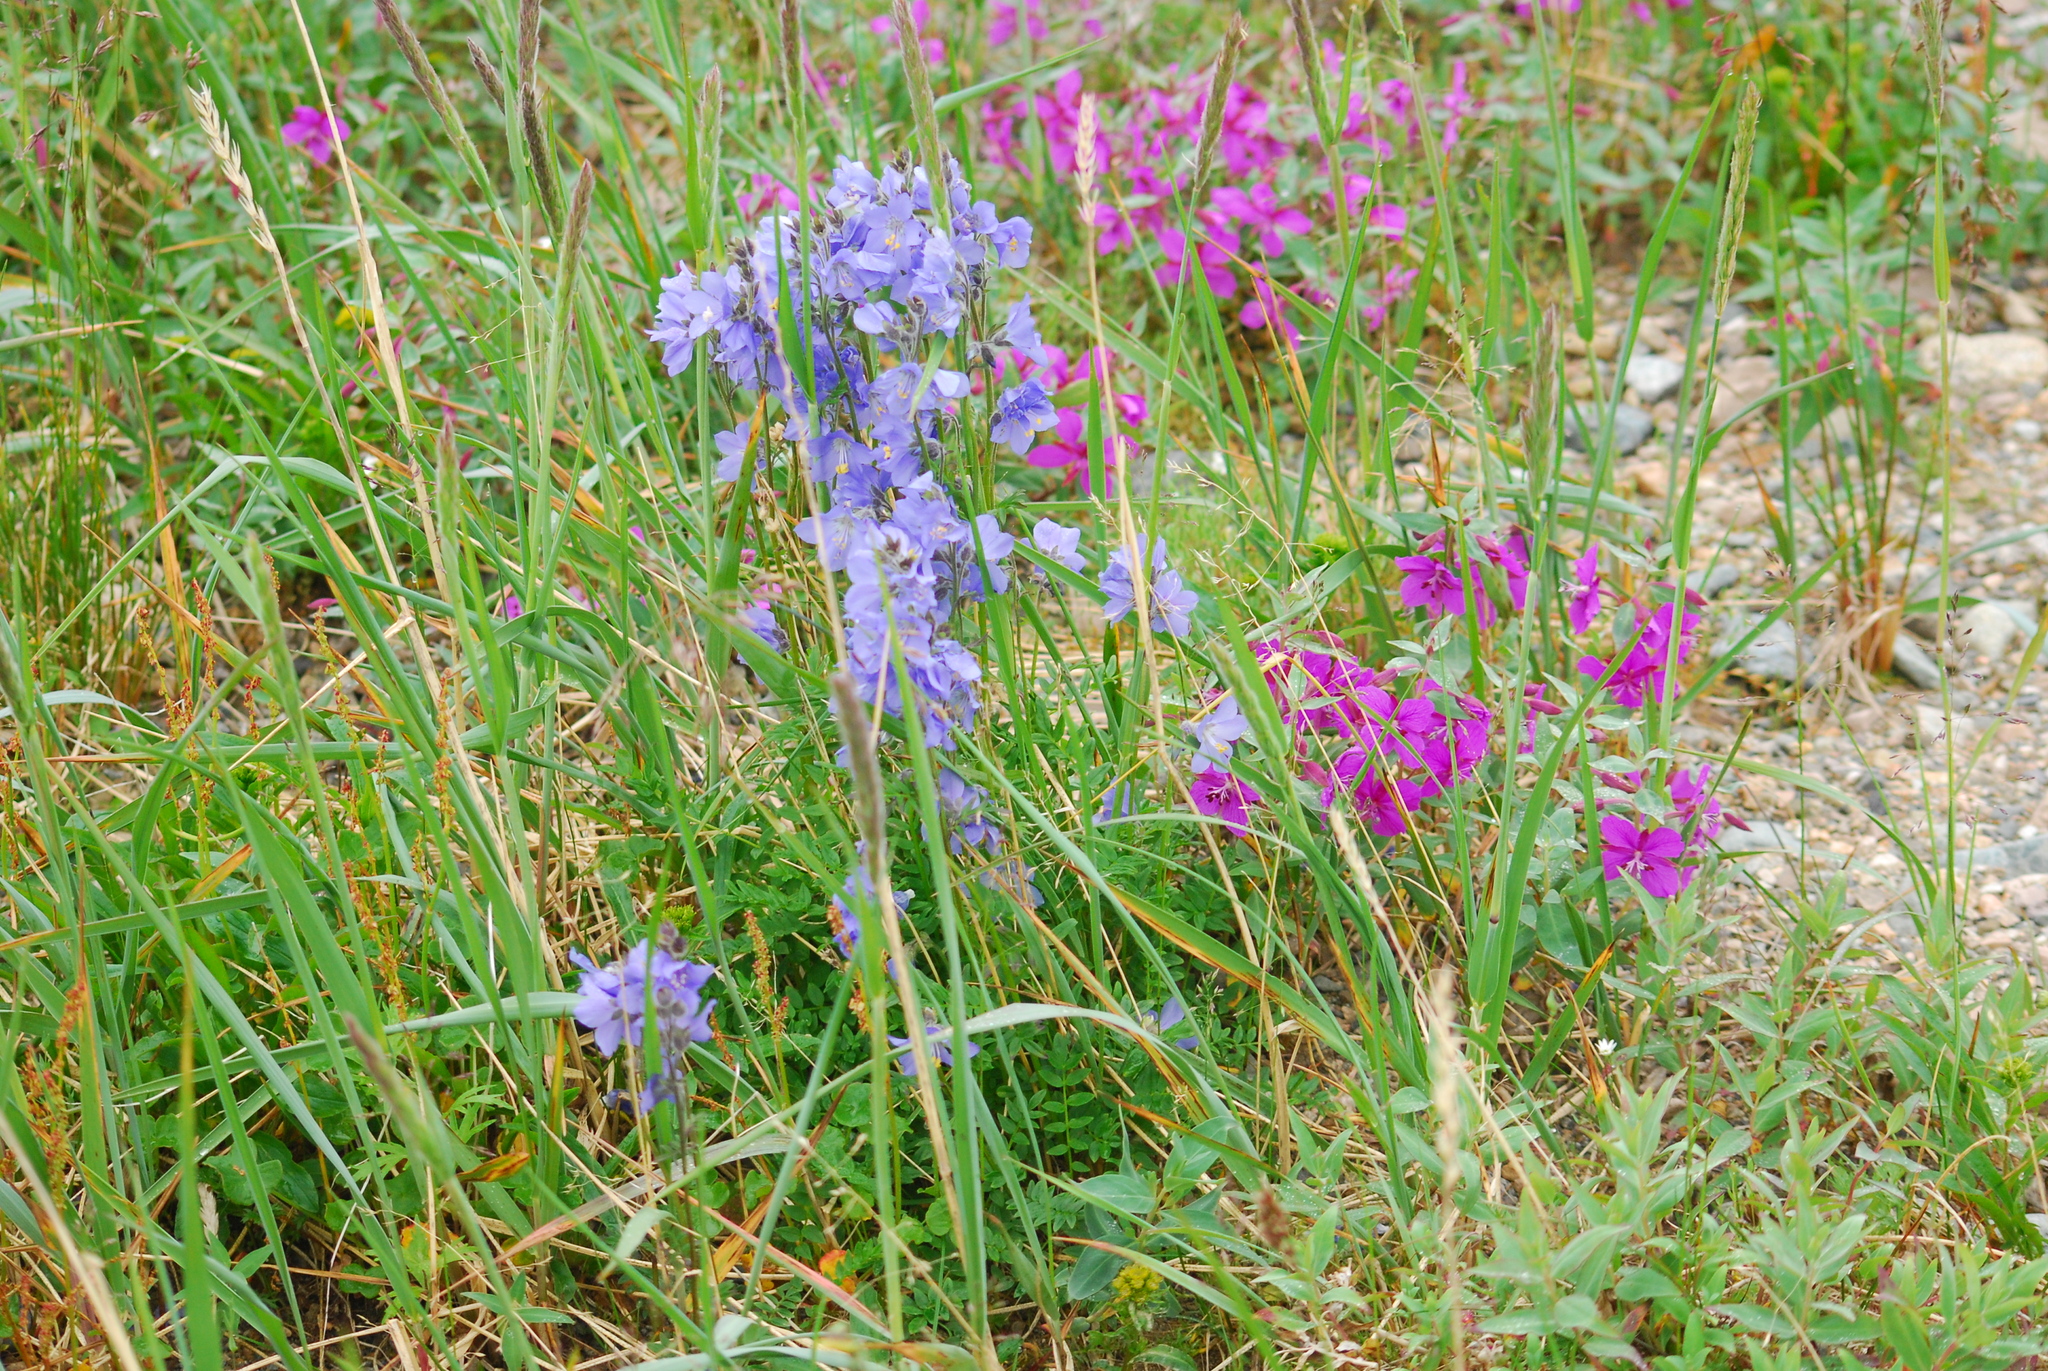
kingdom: Plantae
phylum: Tracheophyta
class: Magnoliopsida
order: Ericales
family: Polemoniaceae
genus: Polemonium
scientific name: Polemonium acutiflorum
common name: Tall jacob's-ladder
